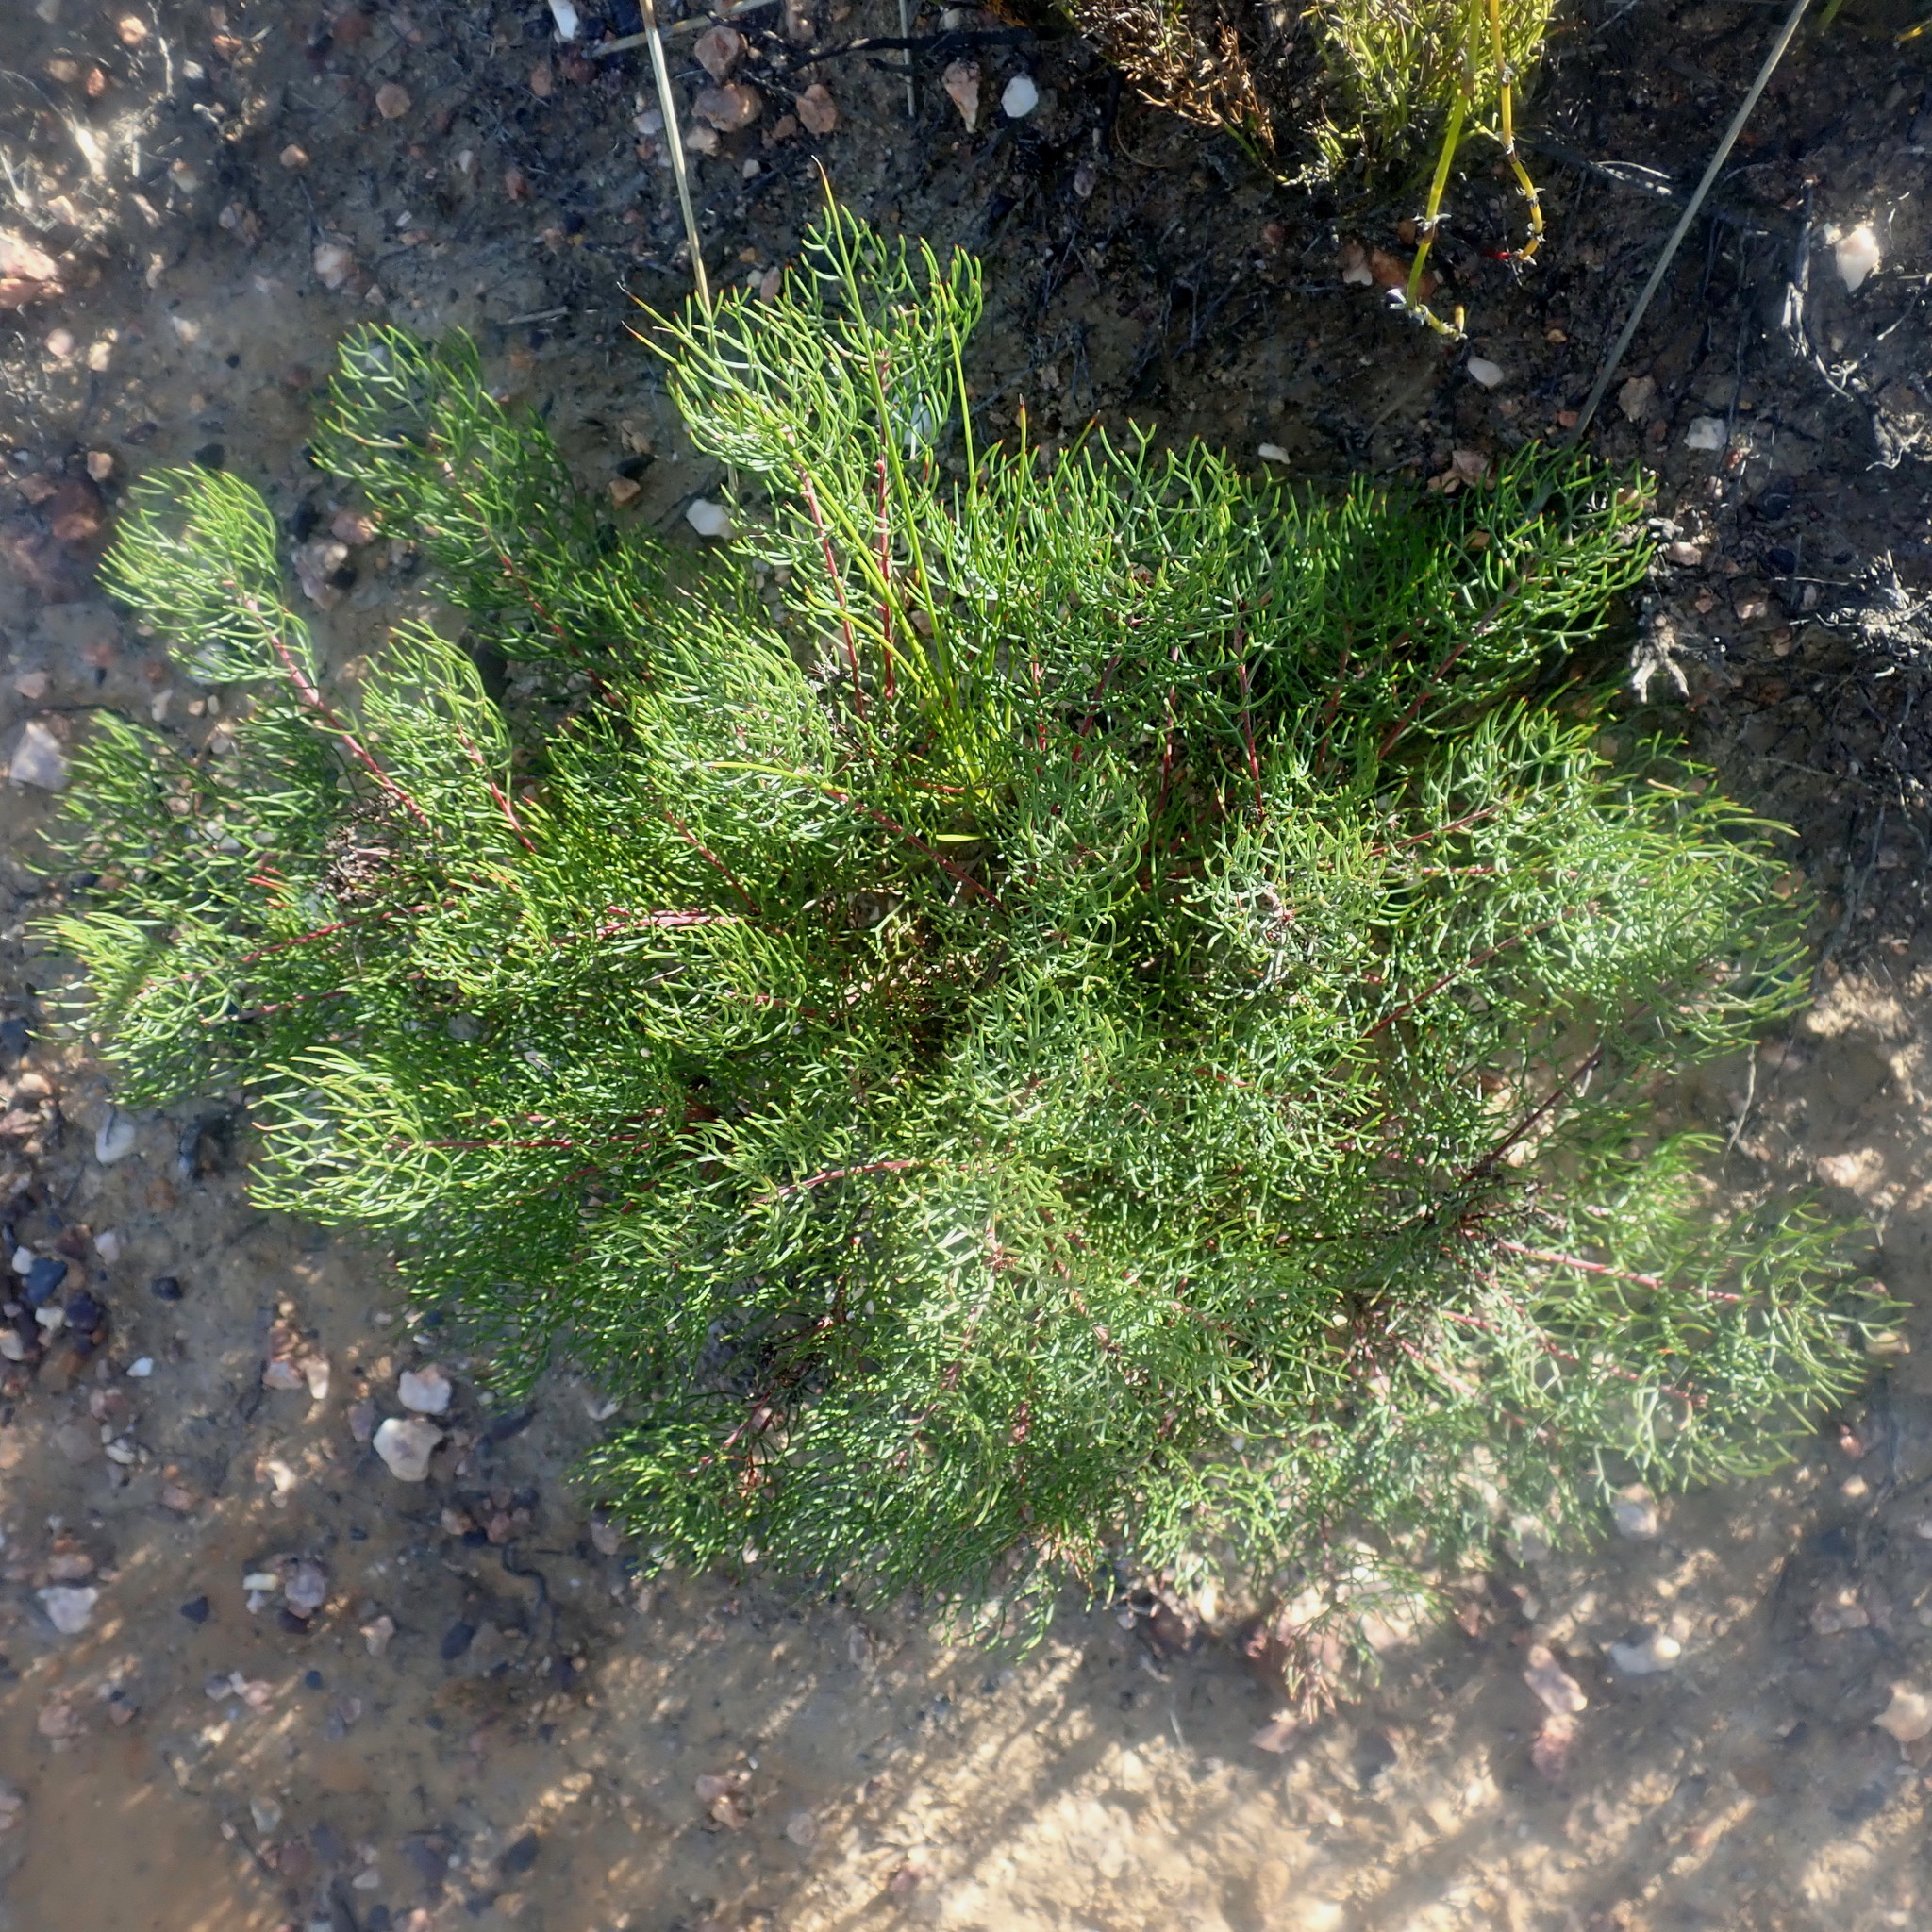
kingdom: Plantae
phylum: Tracheophyta
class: Magnoliopsida
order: Proteales
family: Proteaceae
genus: Serruria
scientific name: Serruria fasciflora
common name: Common pin spiderhead
